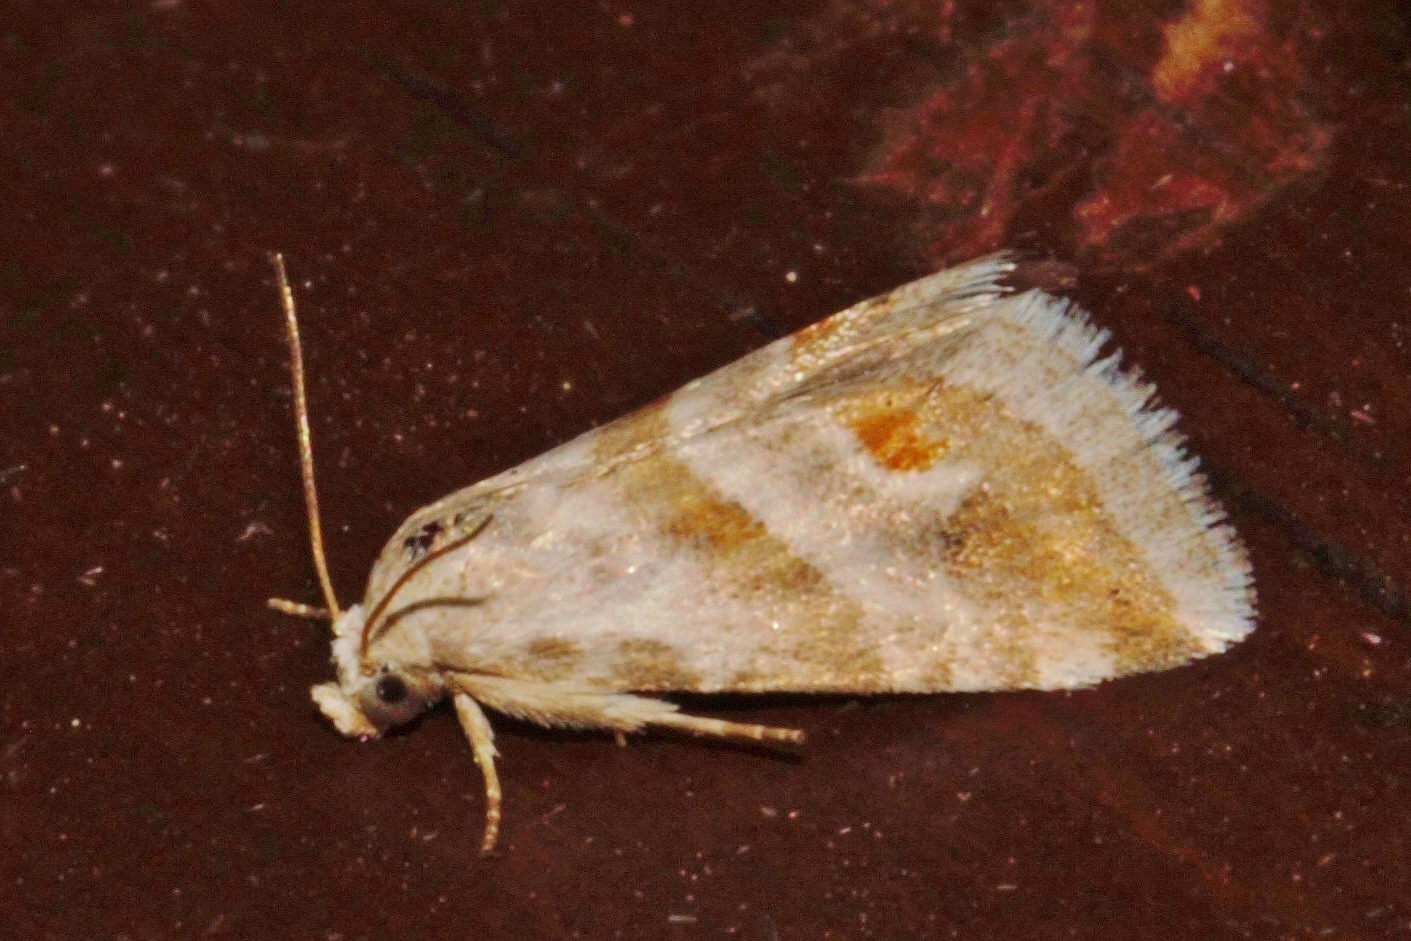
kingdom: Animalia
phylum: Arthropoda
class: Insecta
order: Lepidoptera
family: Noctuidae
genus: Eublemma
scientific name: Eublemma ceresensis
